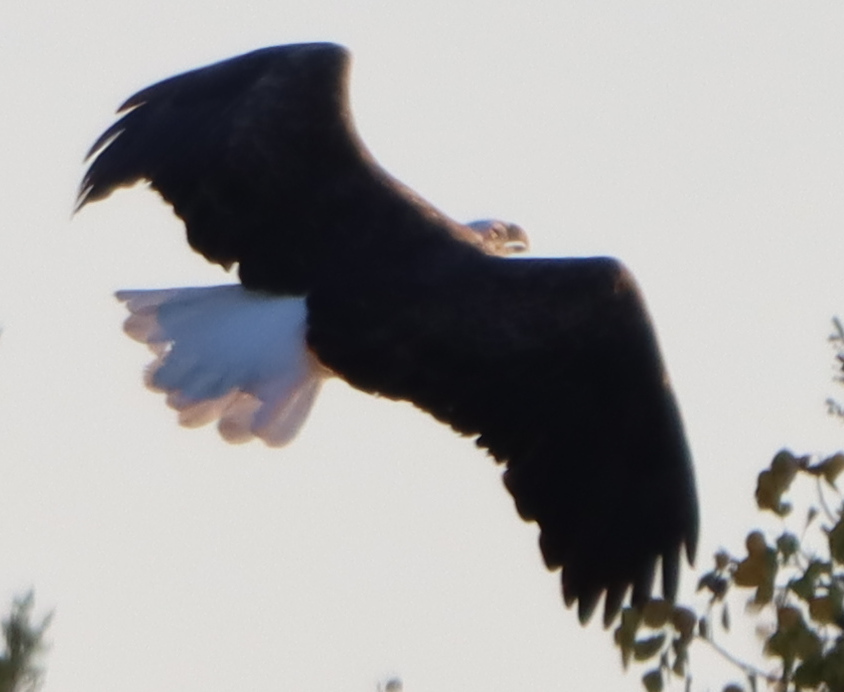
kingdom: Animalia
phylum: Chordata
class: Aves
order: Accipitriformes
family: Accipitridae
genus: Haliaeetus
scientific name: Haliaeetus leucocephalus
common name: Bald eagle
